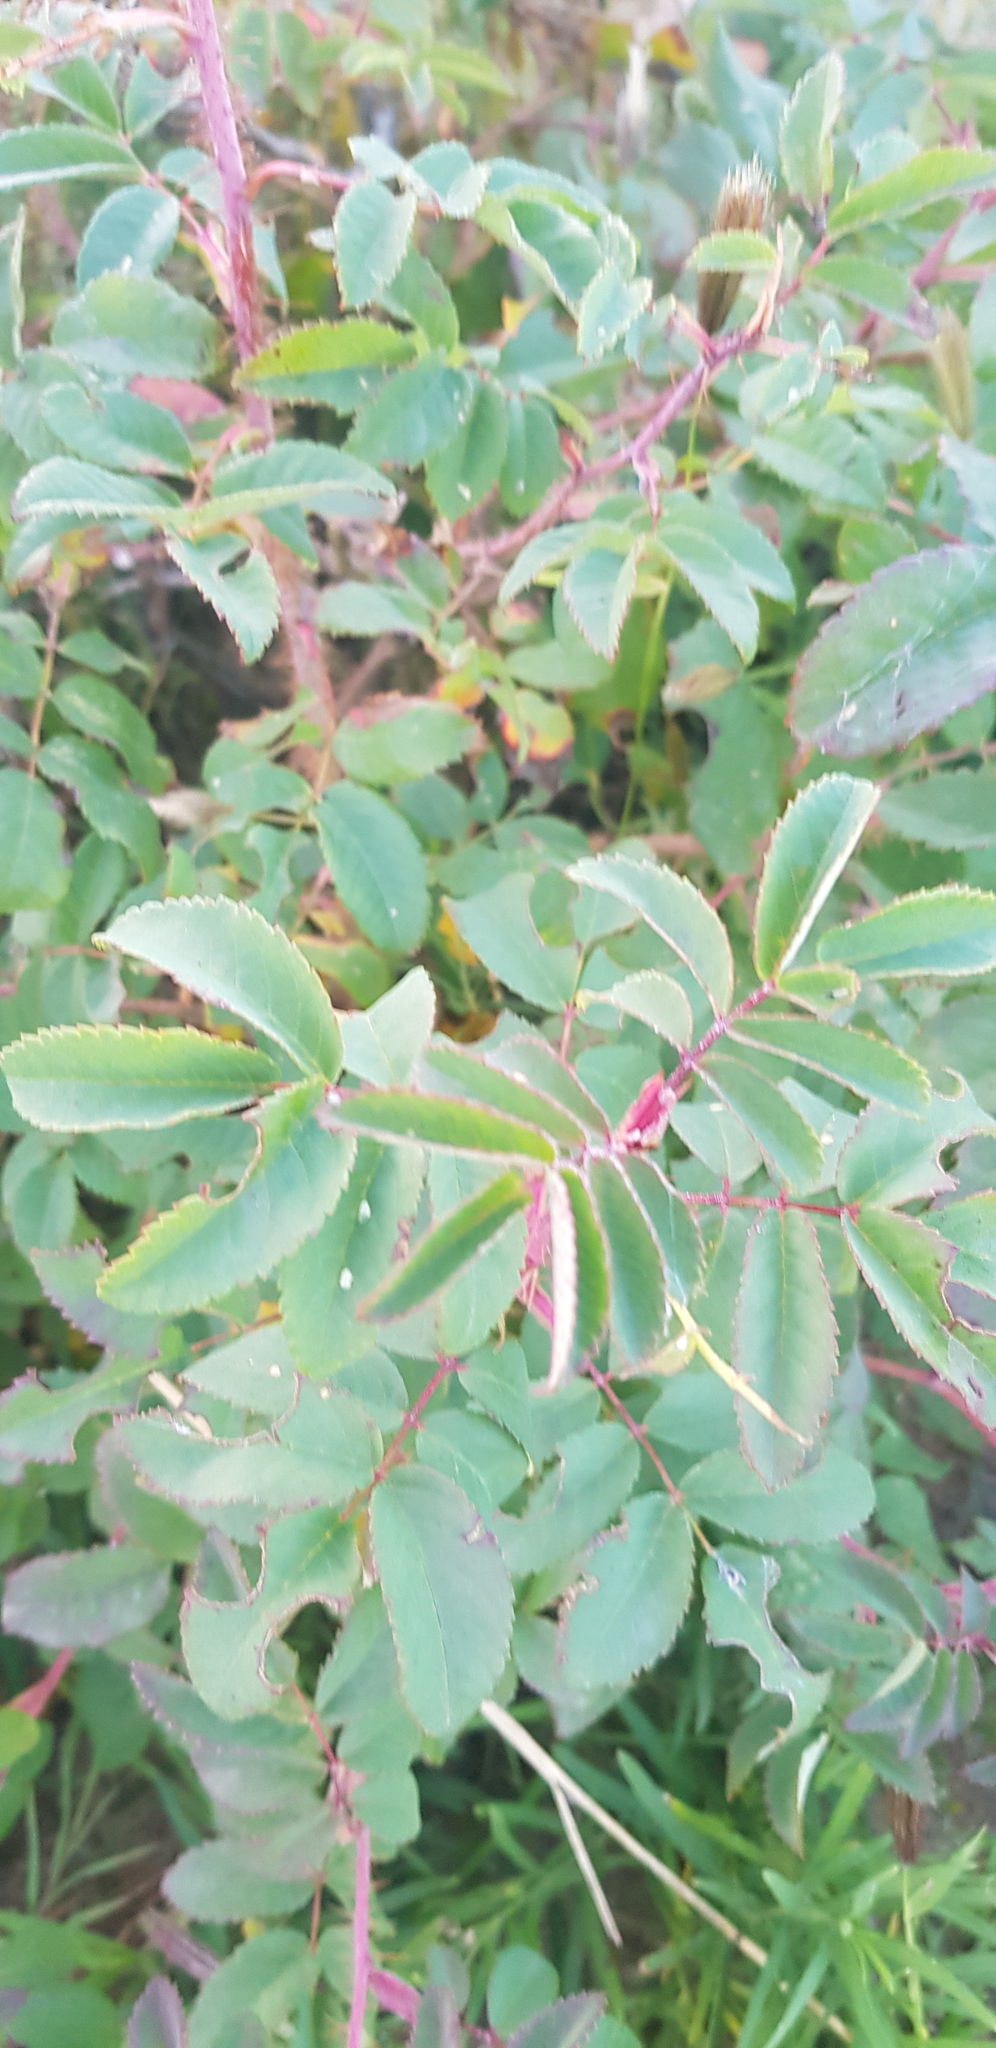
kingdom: Plantae
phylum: Tracheophyta
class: Magnoliopsida
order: Rosales
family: Rosaceae
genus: Rosa
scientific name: Rosa davurica
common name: Amur rose
